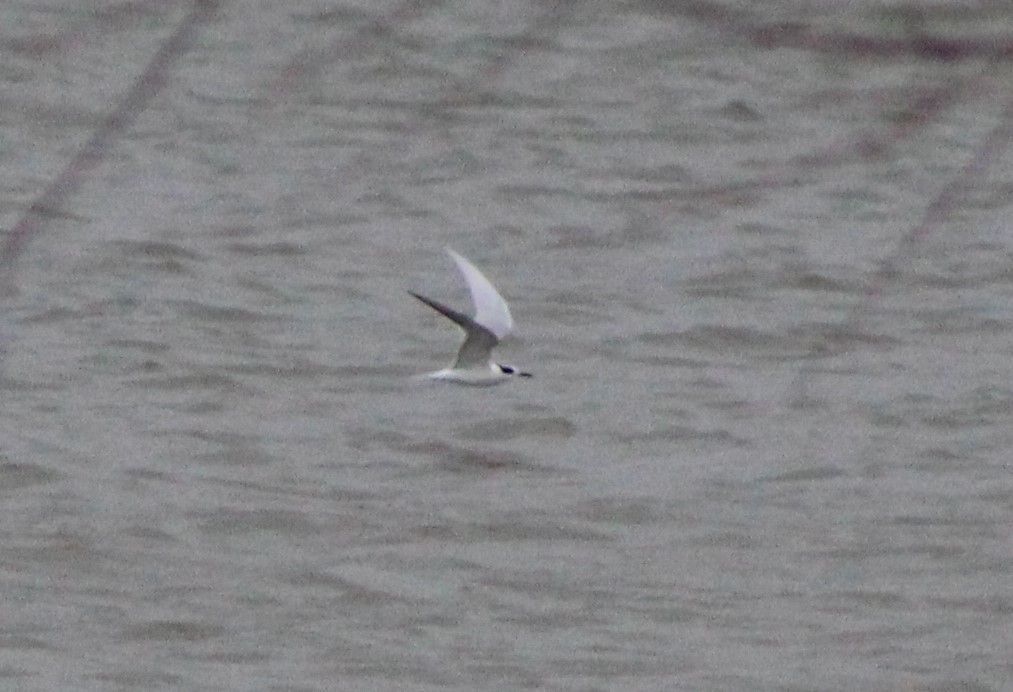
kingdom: Animalia
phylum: Chordata
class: Aves
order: Charadriiformes
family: Laridae
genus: Sterna
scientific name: Sterna forsteri
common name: Forster's tern
